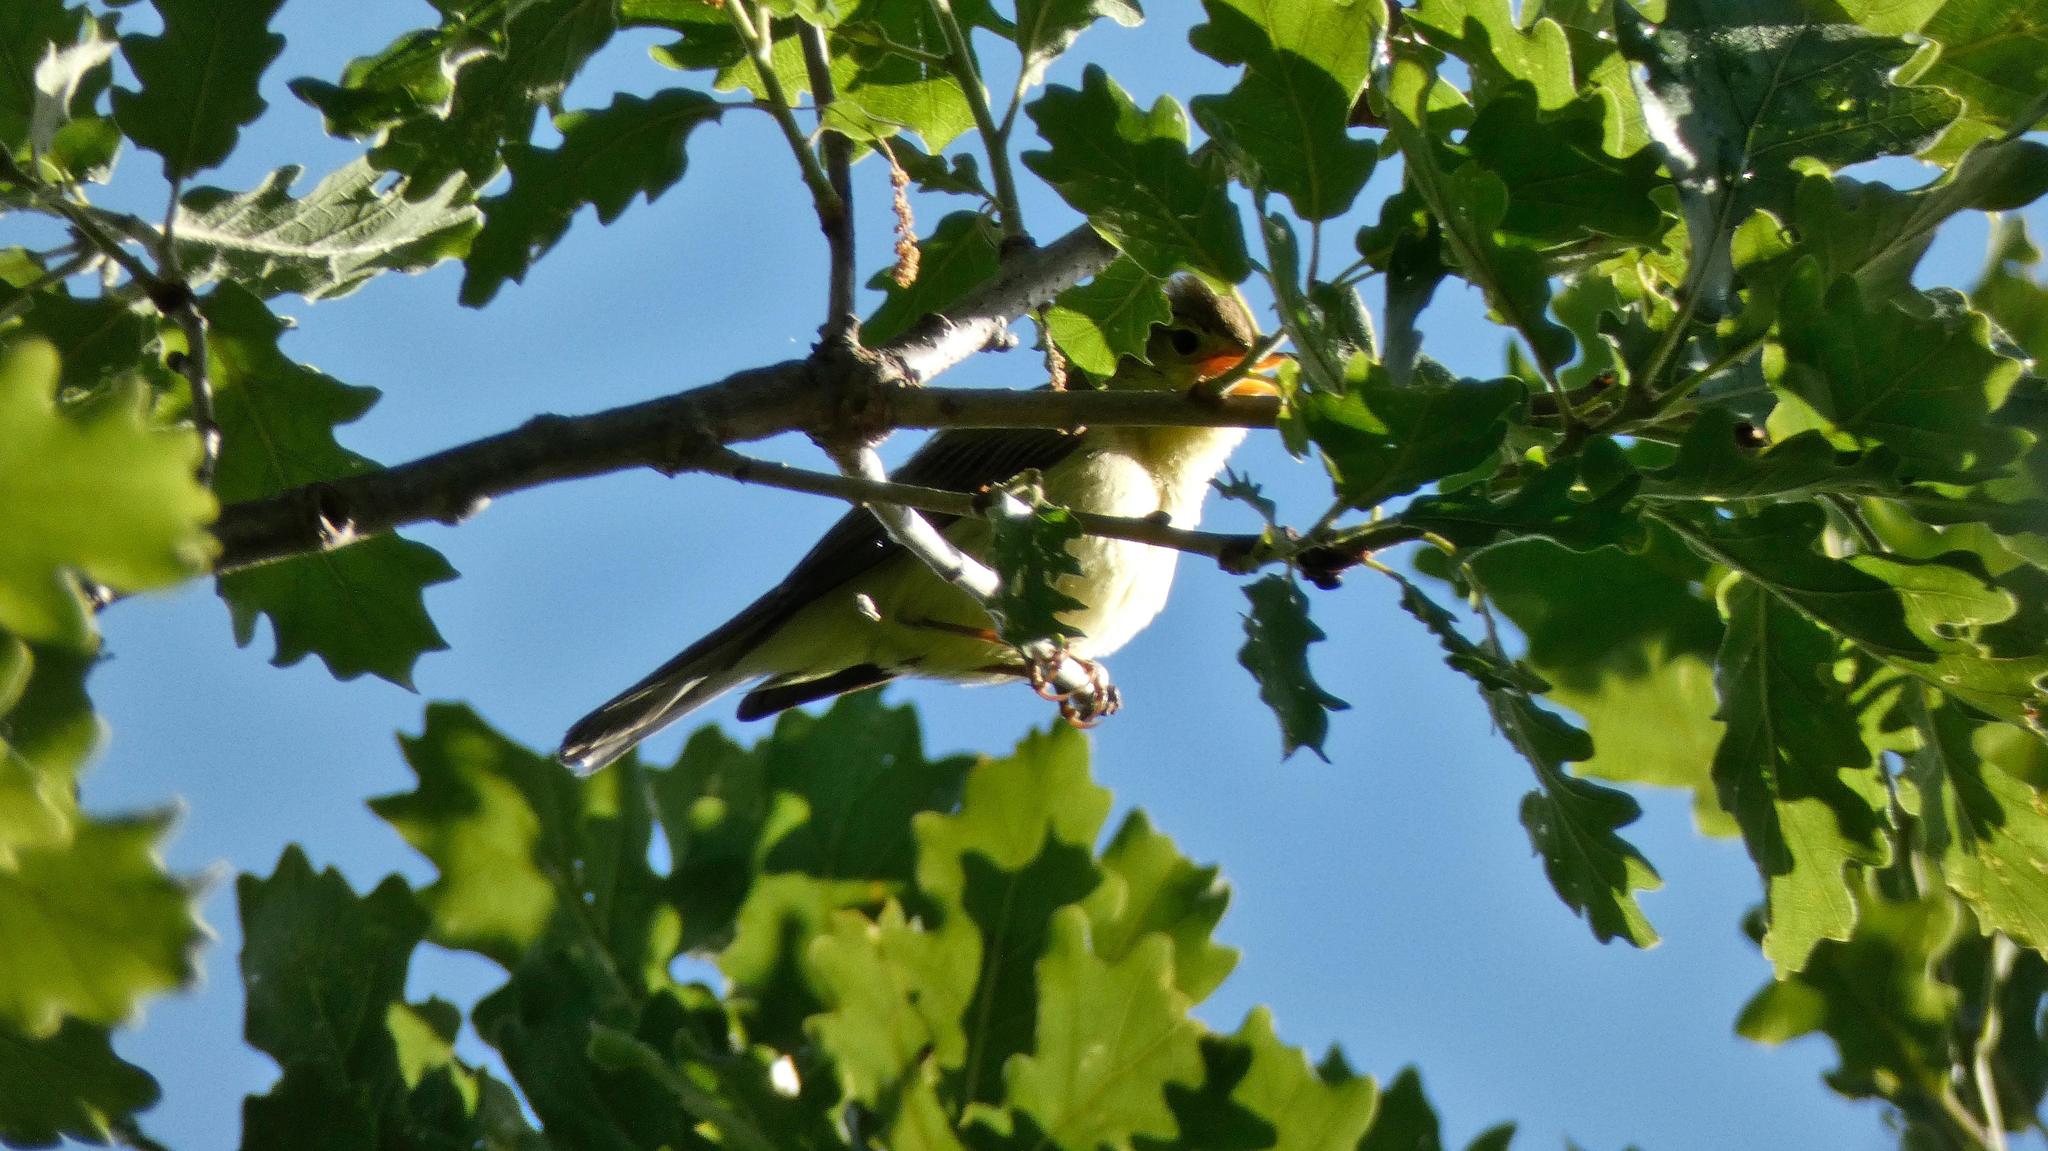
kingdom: Animalia
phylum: Chordata
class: Aves
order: Passeriformes
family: Acrocephalidae
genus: Hippolais
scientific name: Hippolais polyglotta
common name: Melodious warbler
